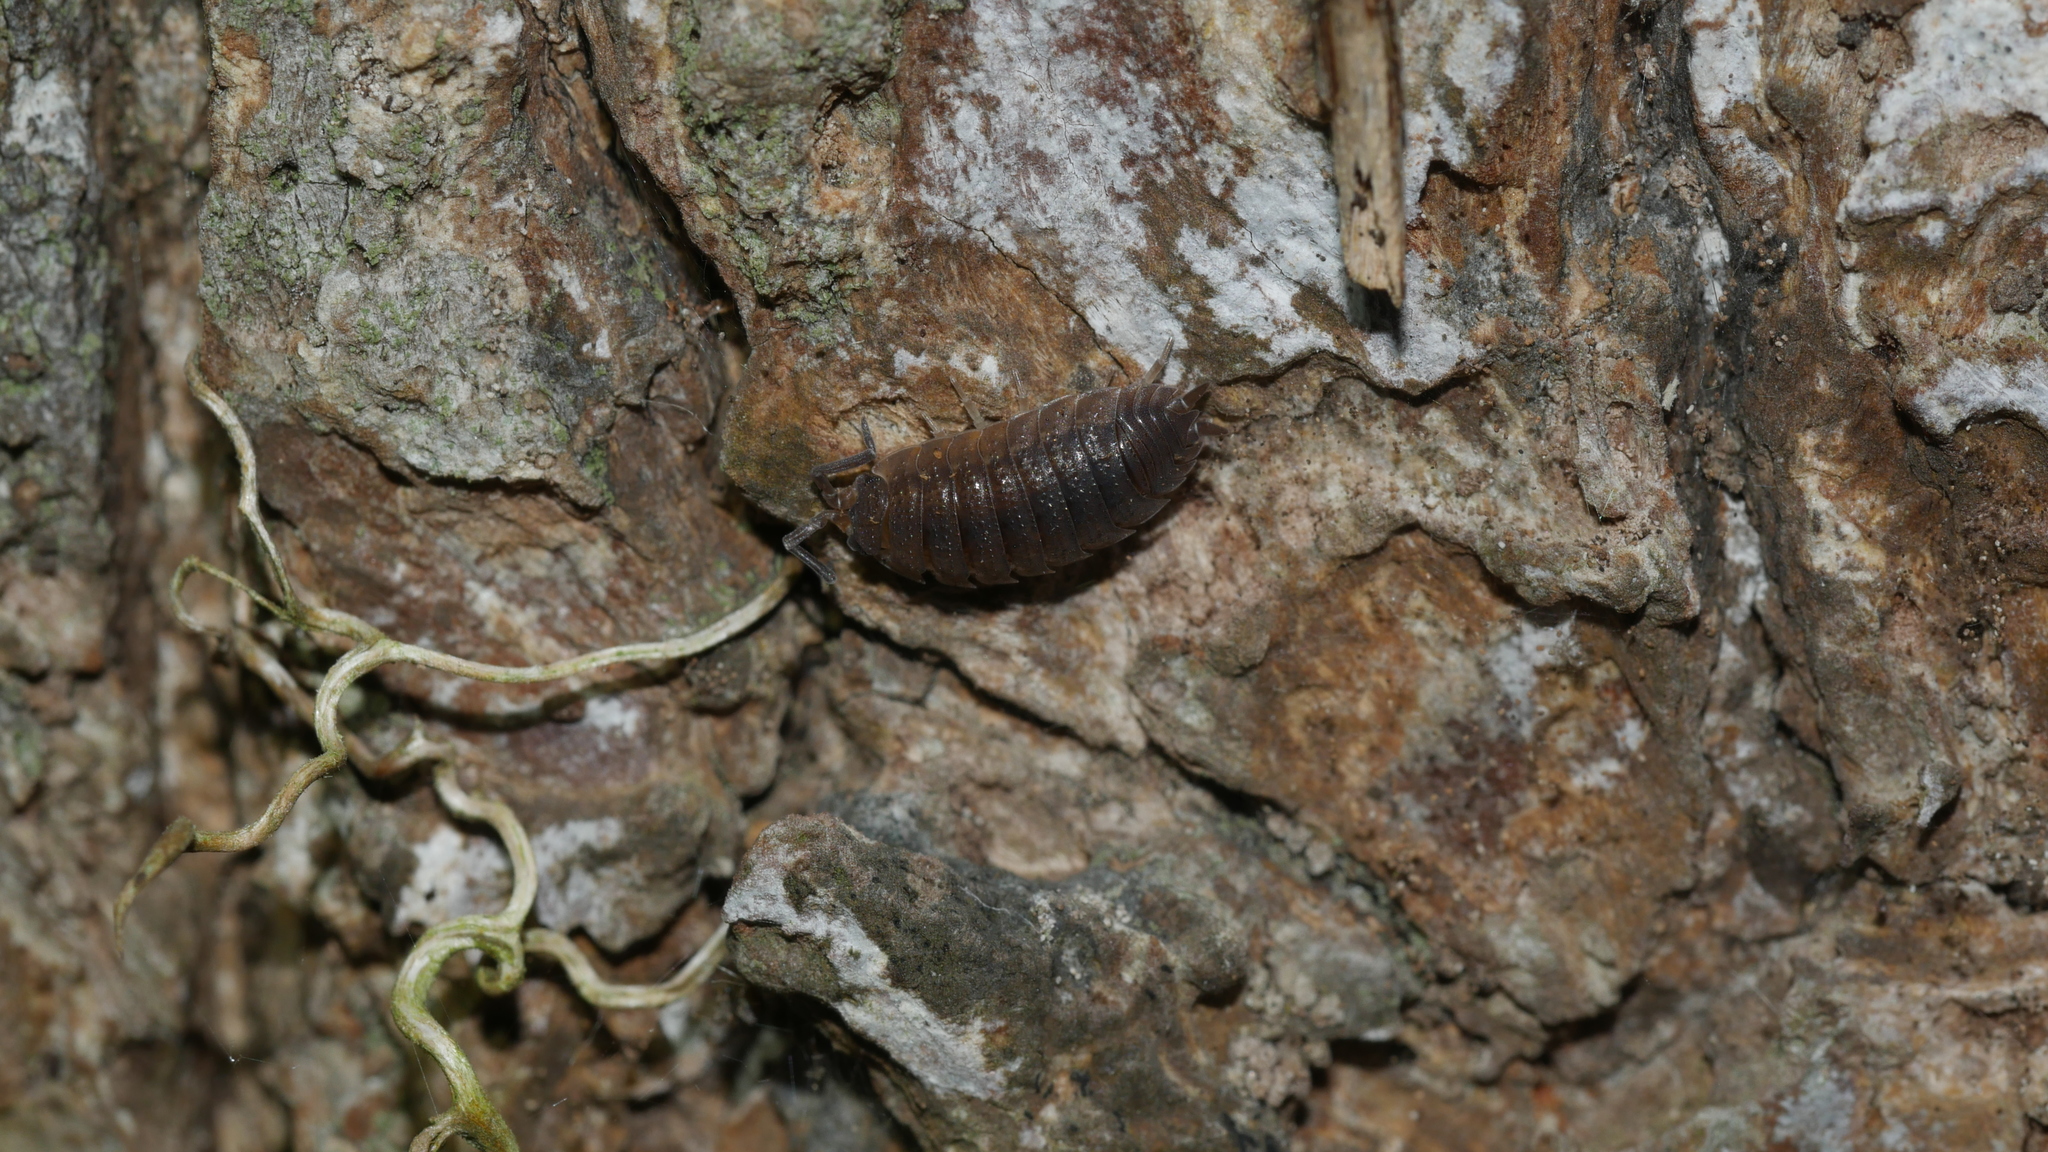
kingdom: Animalia
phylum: Arthropoda
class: Malacostraca
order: Isopoda
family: Porcellionidae
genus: Porcellio
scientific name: Porcellio scaber
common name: Common rough woodlouse
